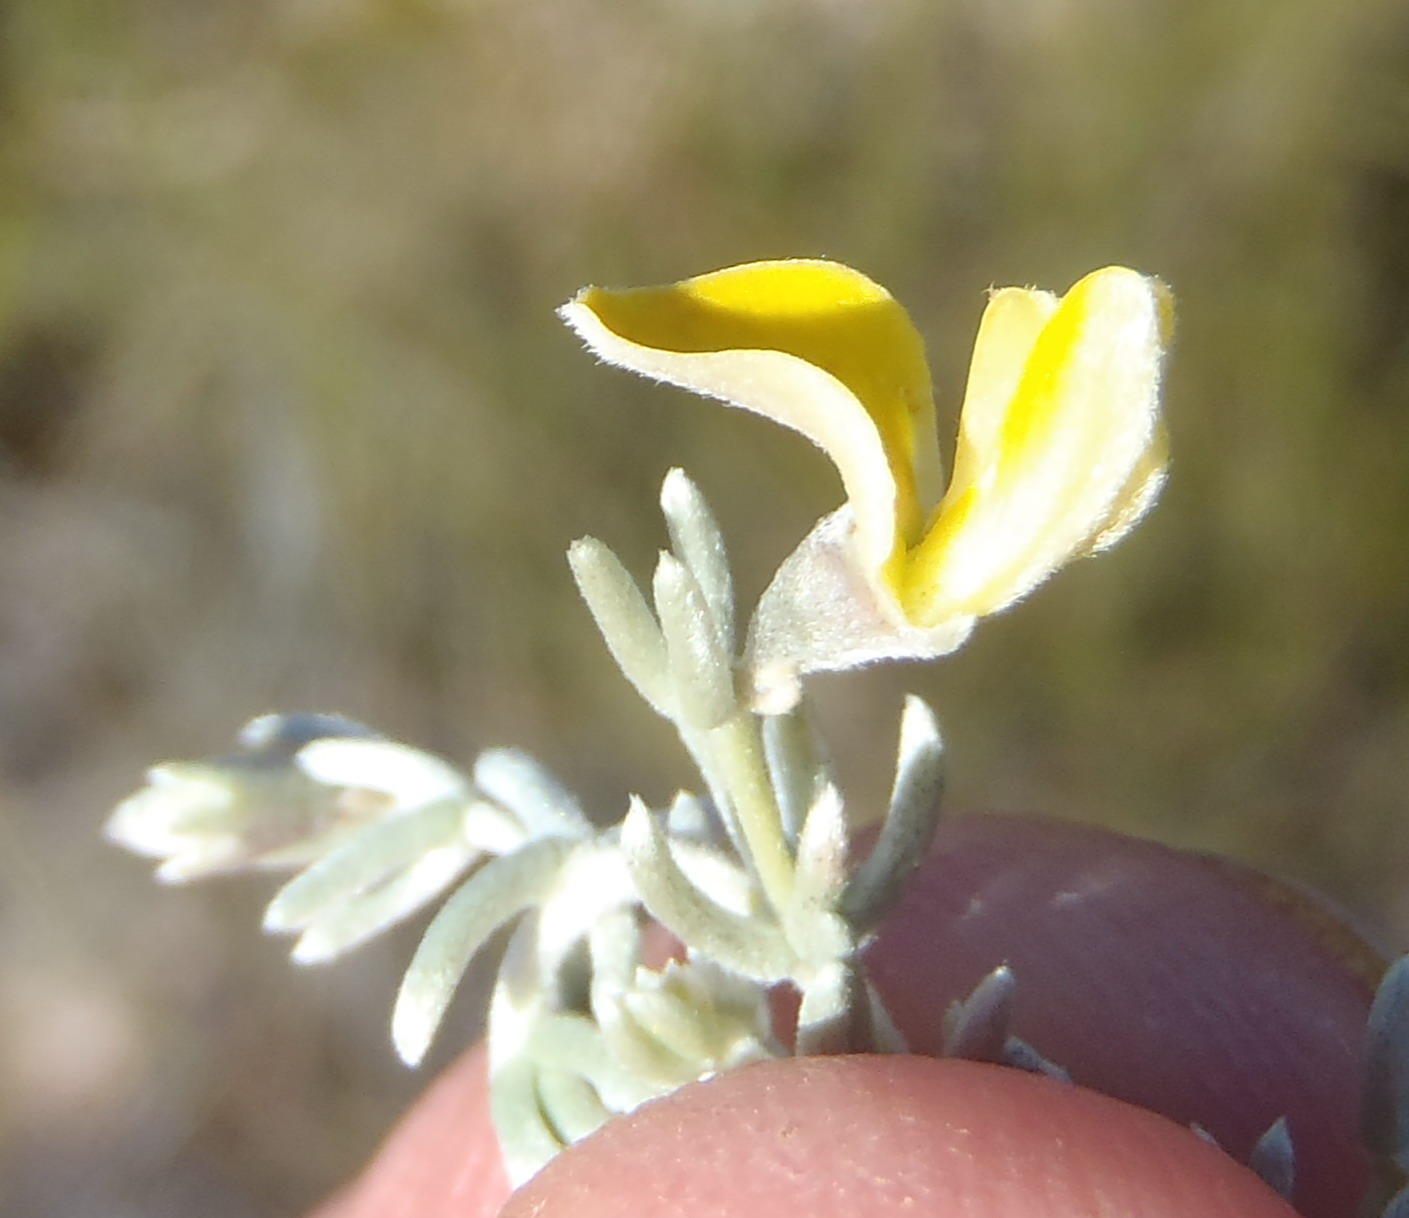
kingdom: Plantae
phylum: Tracheophyta
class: Magnoliopsida
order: Fabales
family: Fabaceae
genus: Aspalathus
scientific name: Aspalathus pedunculata
